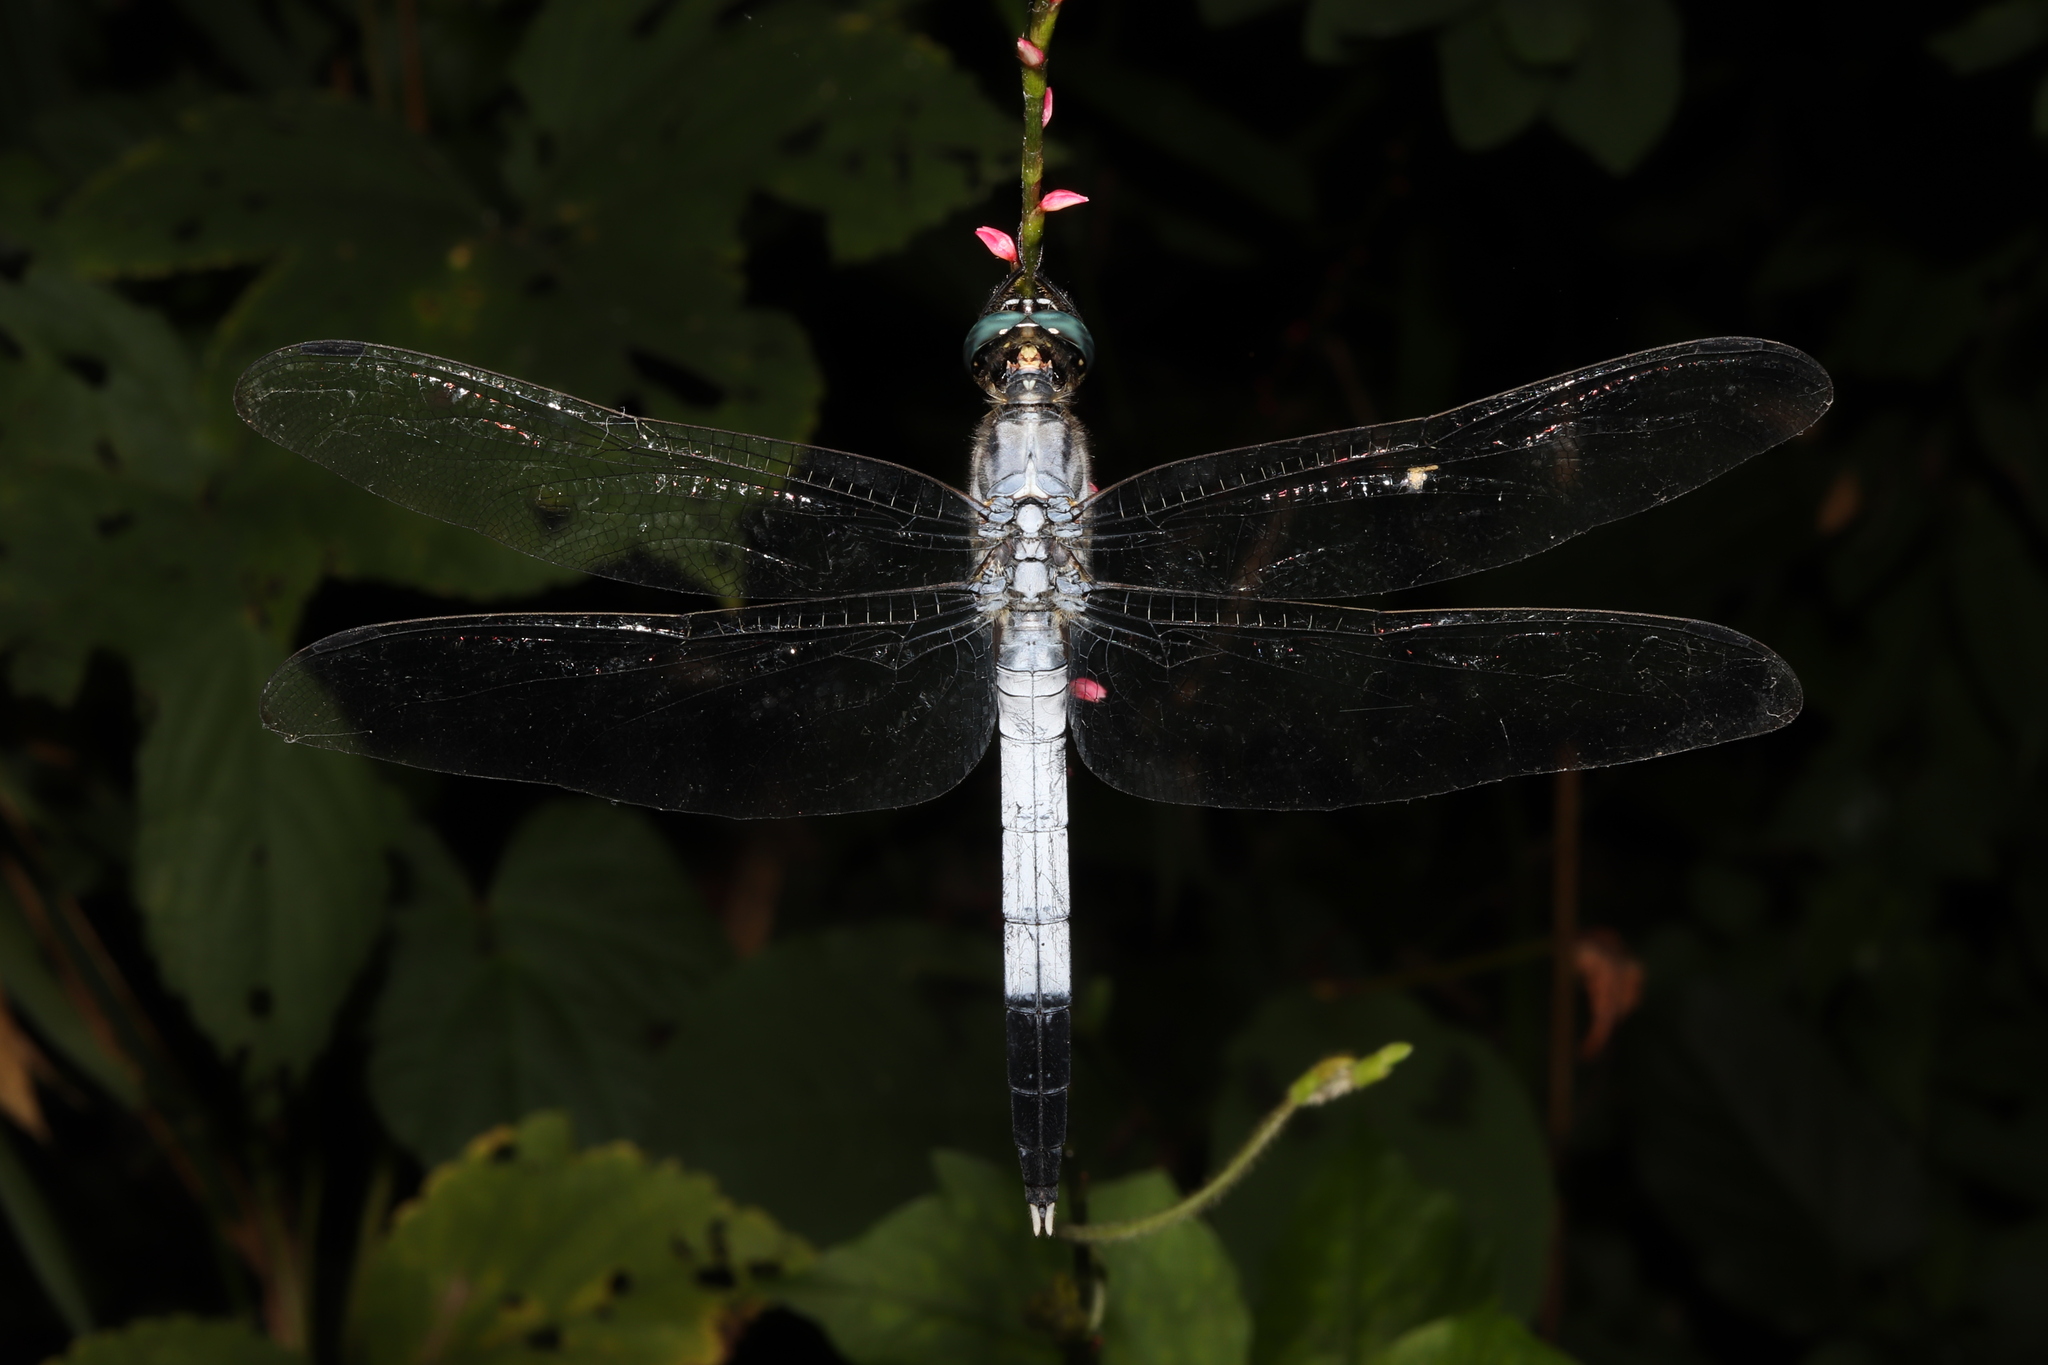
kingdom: Animalia
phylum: Arthropoda
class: Insecta
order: Odonata
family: Libellulidae
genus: Orthetrum
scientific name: Orthetrum albistylum
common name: White-tailed skimmer
